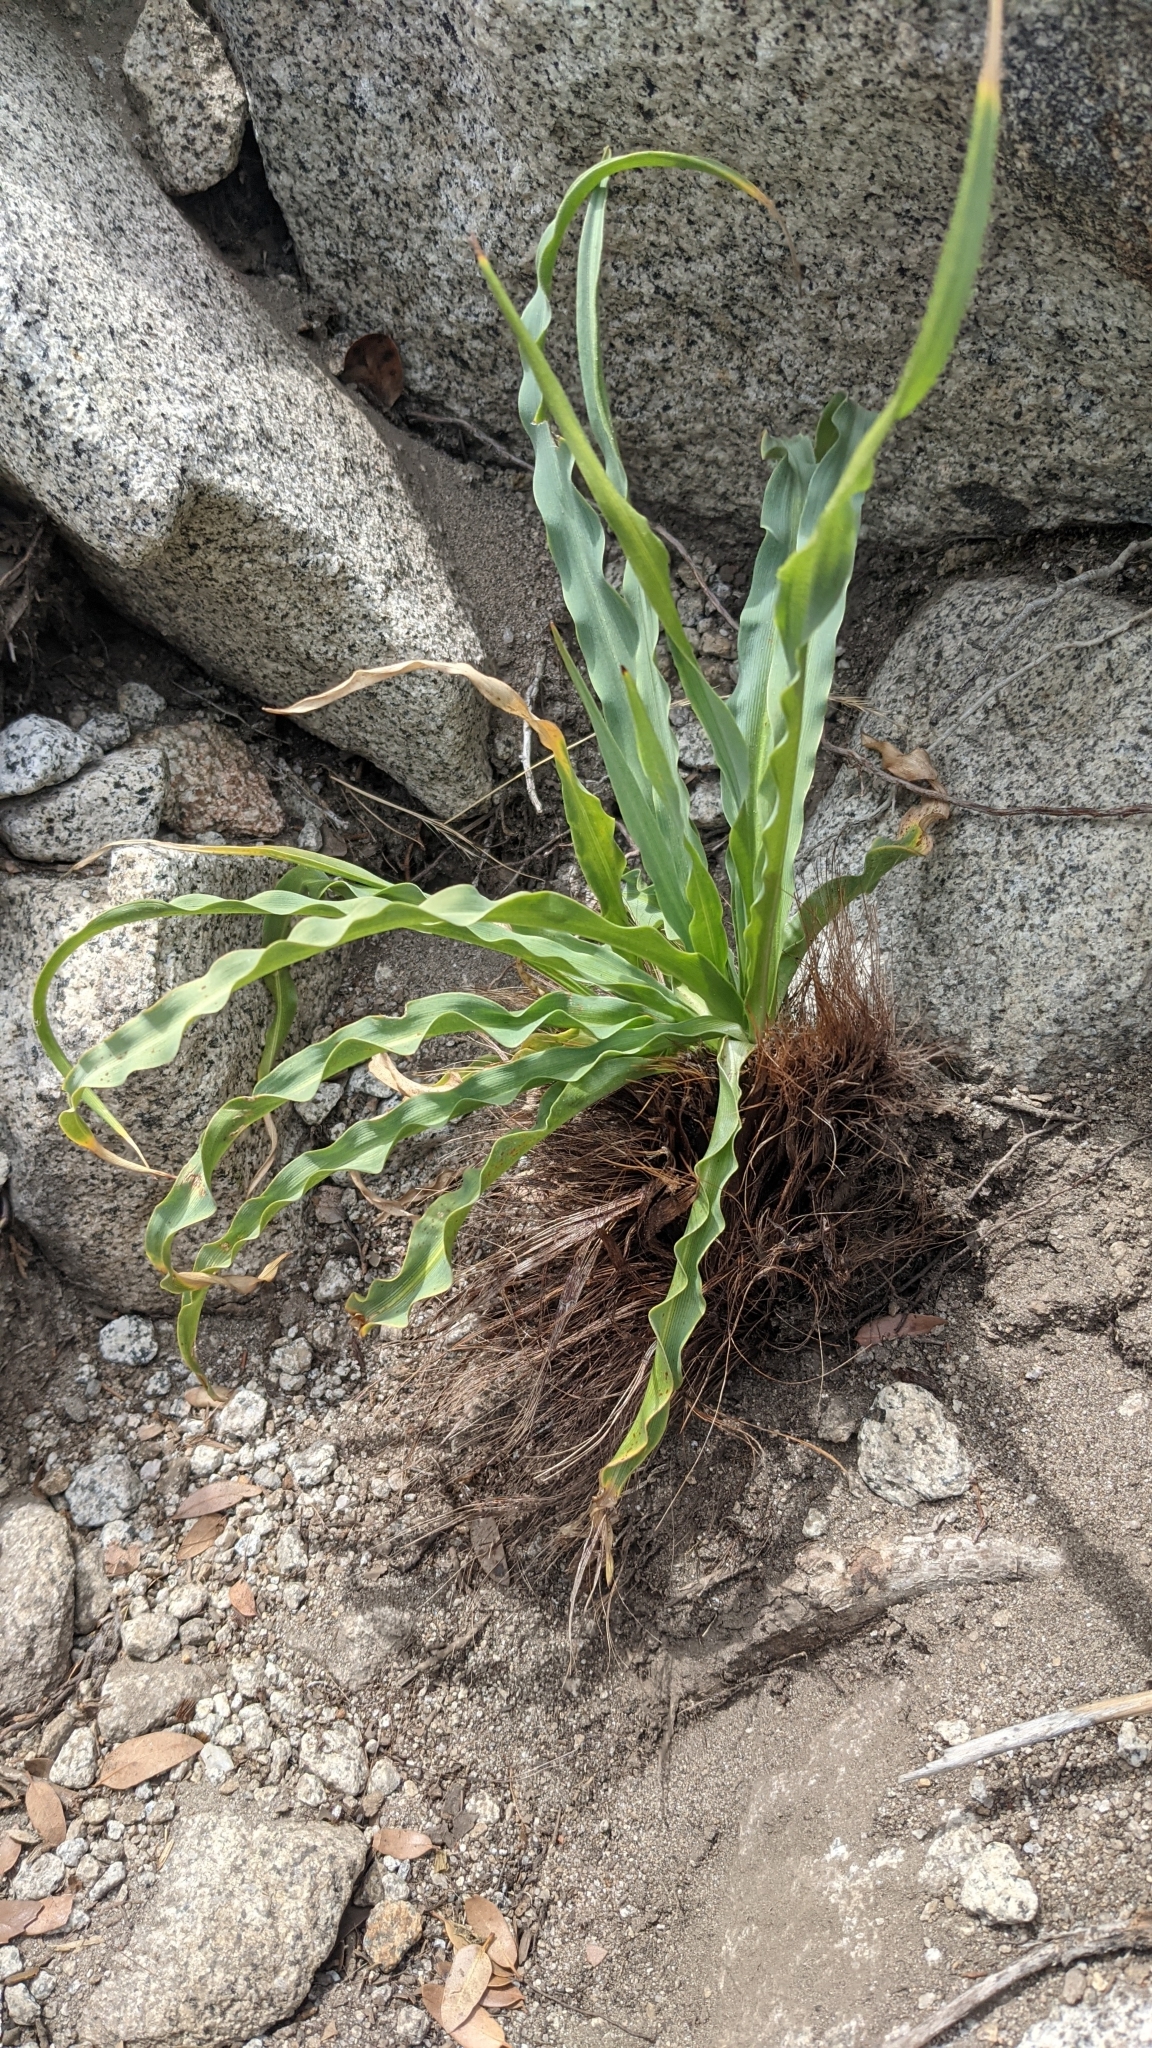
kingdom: Plantae
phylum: Tracheophyta
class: Liliopsida
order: Asparagales
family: Asparagaceae
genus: Chlorogalum
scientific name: Chlorogalum pomeridianum
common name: Amole
